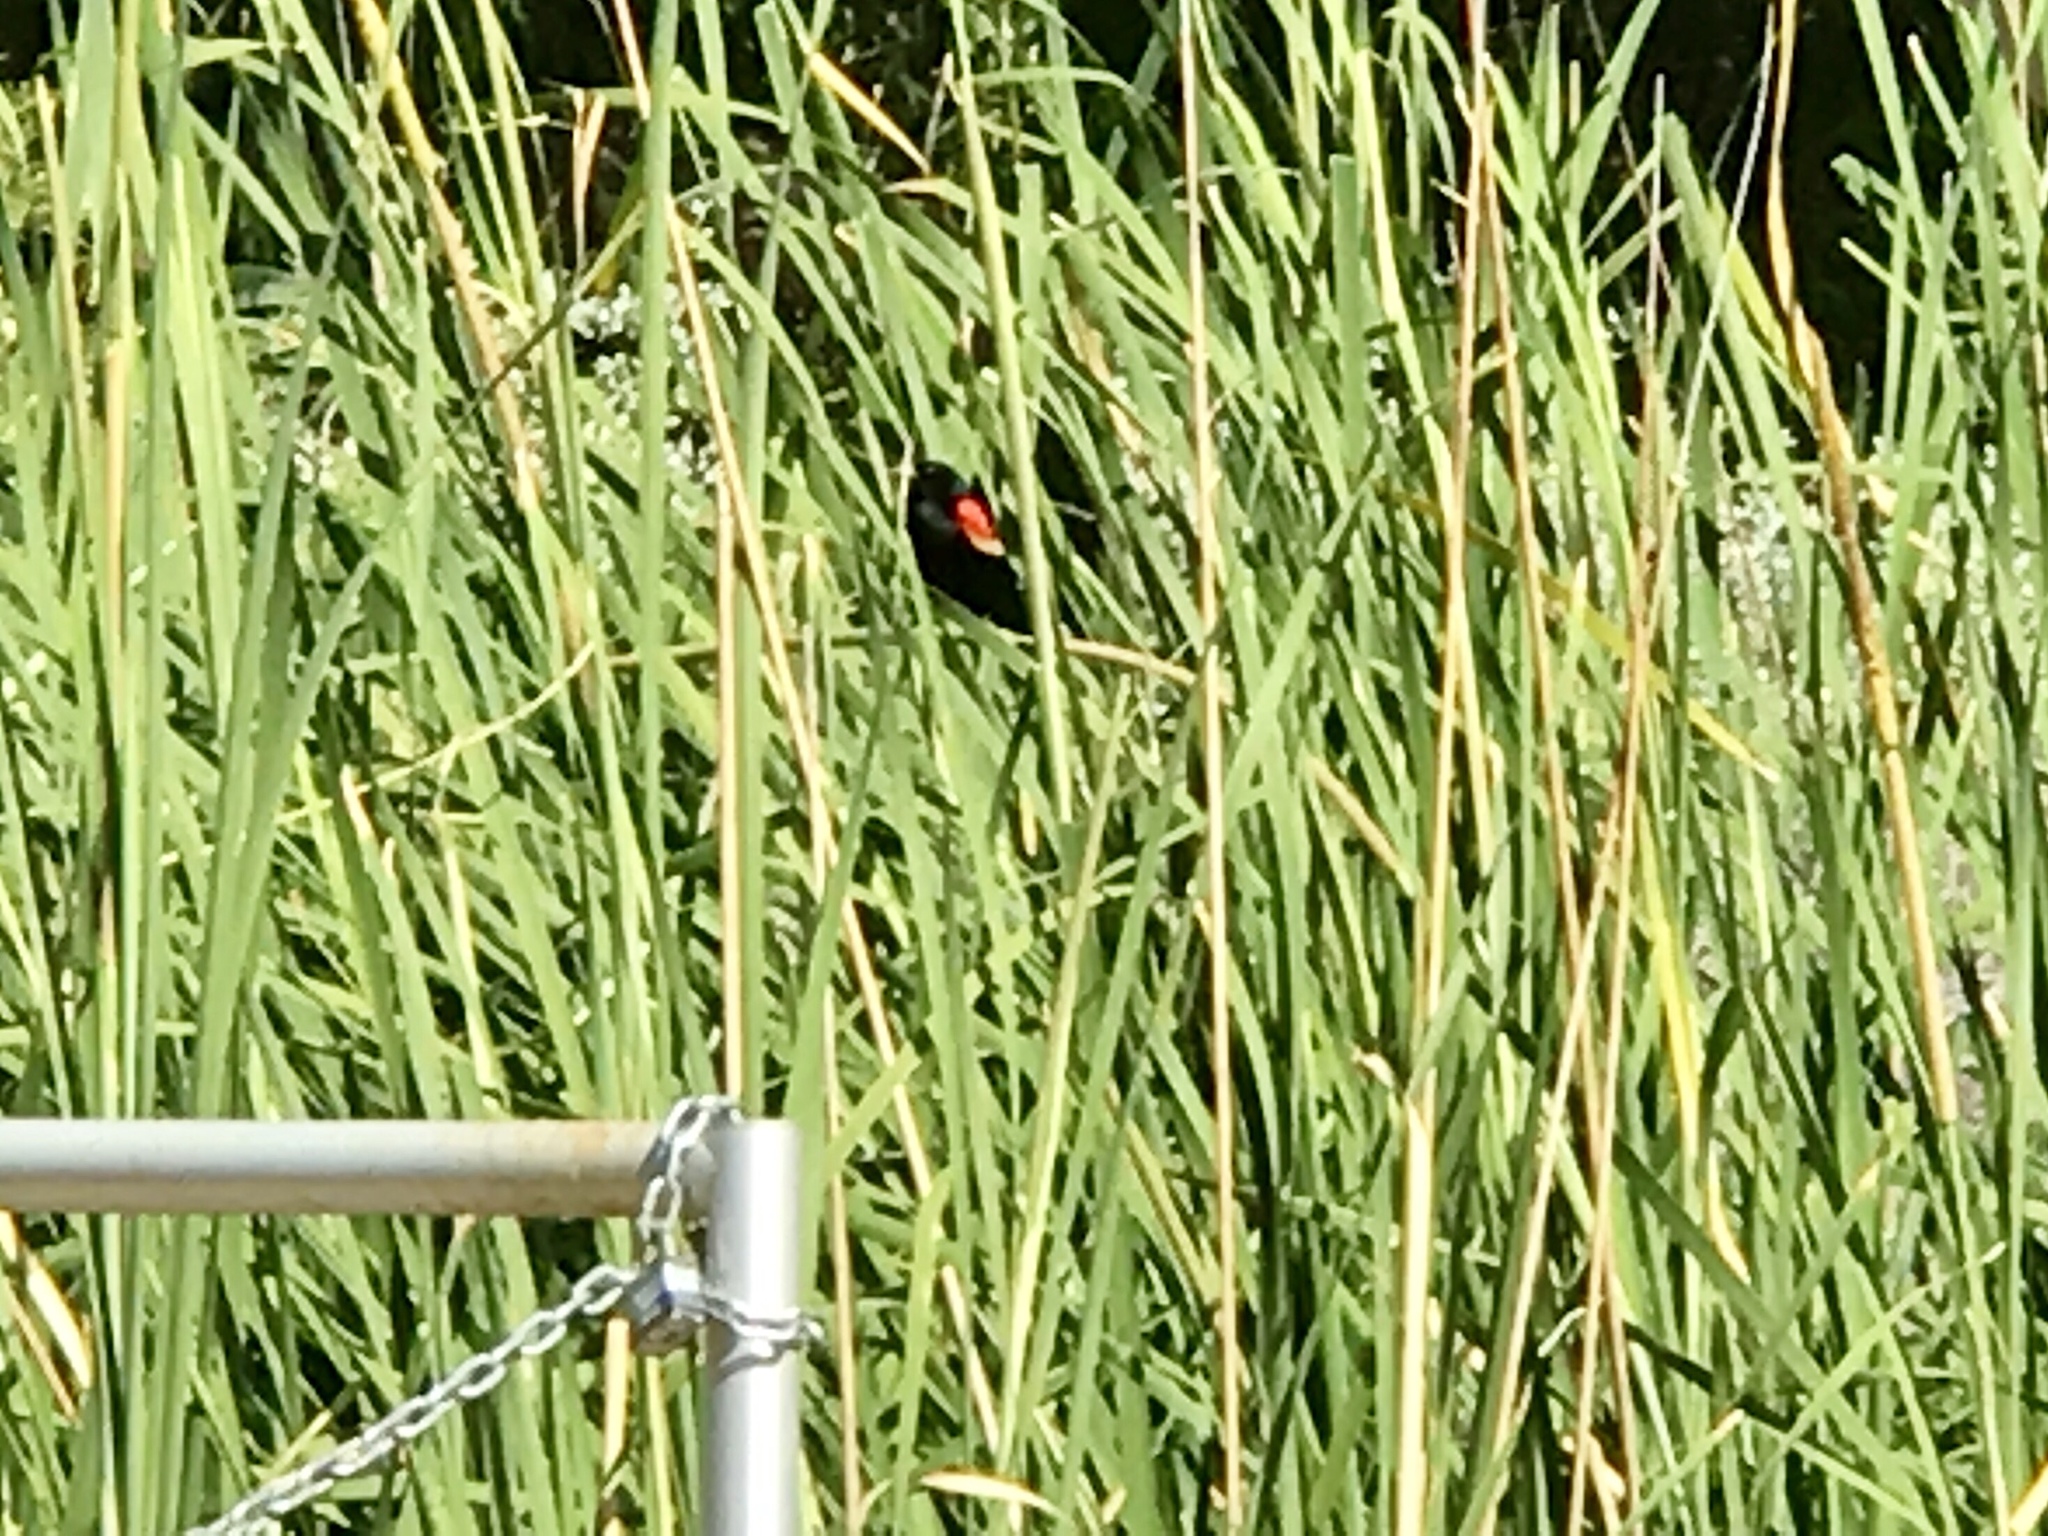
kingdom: Animalia
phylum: Chordata
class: Aves
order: Passeriformes
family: Icteridae
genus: Agelaius
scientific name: Agelaius phoeniceus
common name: Red-winged blackbird
